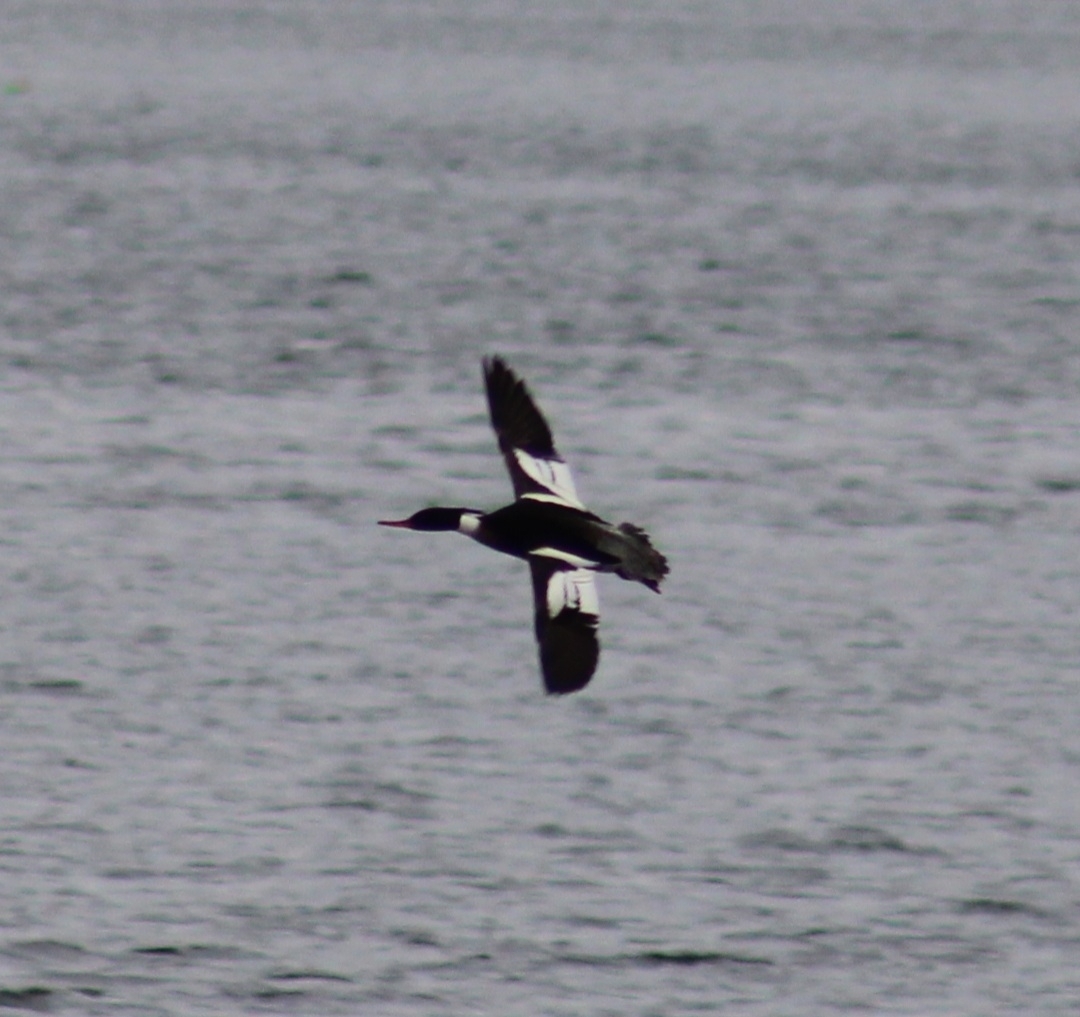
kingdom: Animalia
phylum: Chordata
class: Aves
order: Anseriformes
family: Anatidae
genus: Mergus
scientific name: Mergus serrator
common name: Red-breasted merganser
